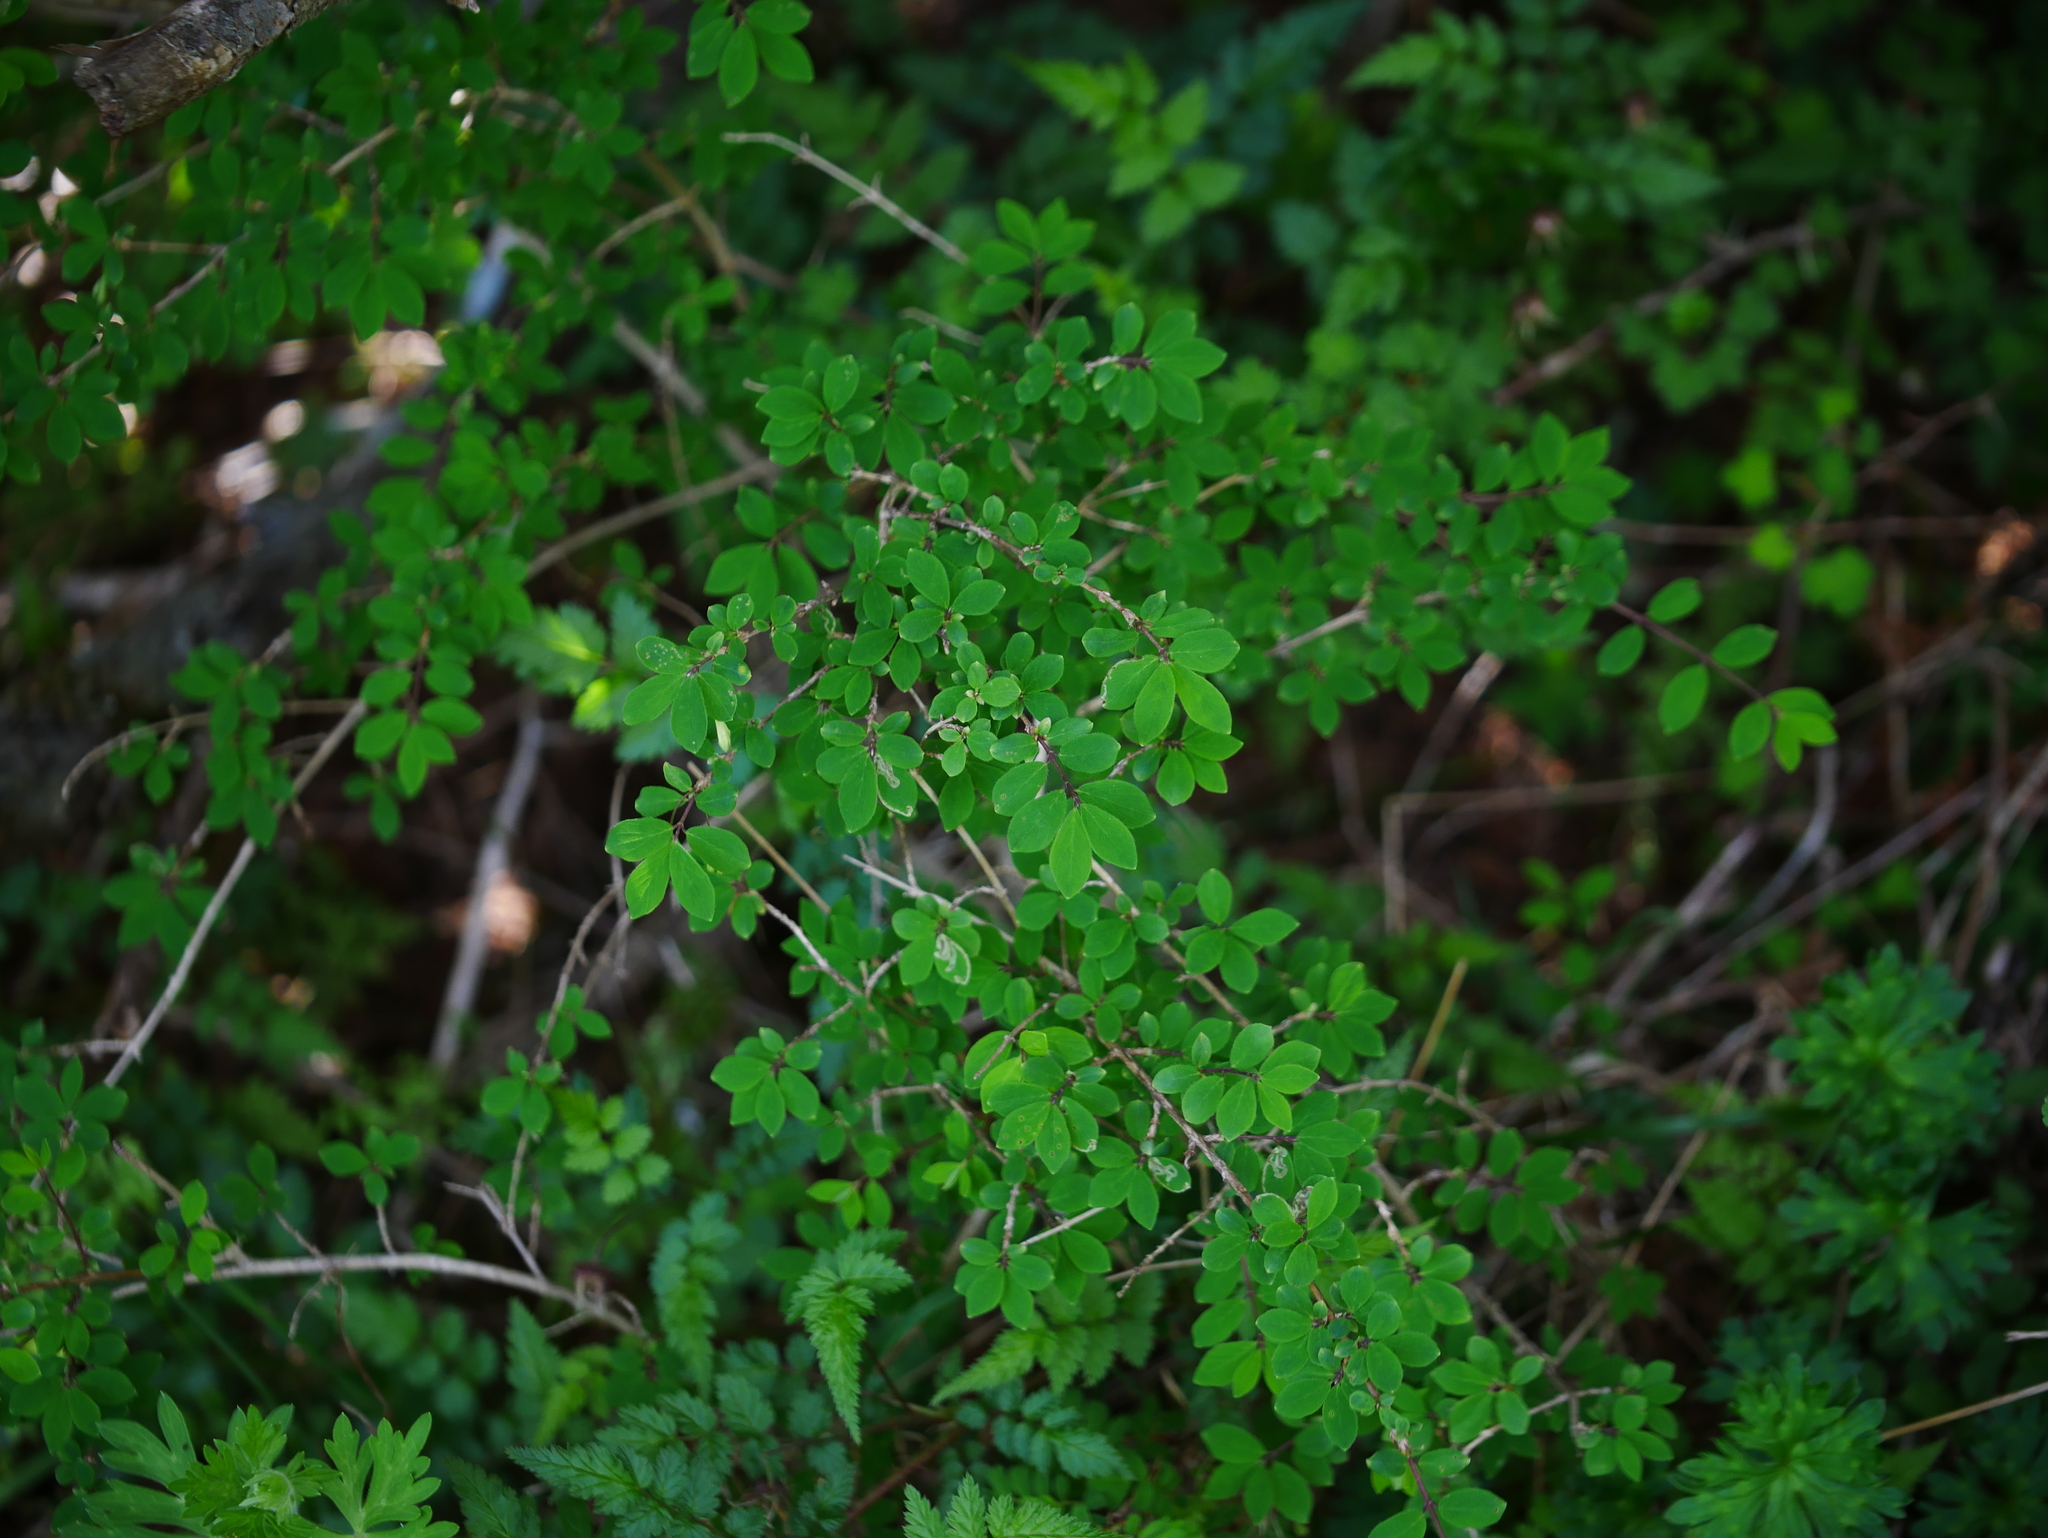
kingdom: Plantae
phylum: Tracheophyta
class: Magnoliopsida
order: Dipsacales
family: Caprifoliaceae
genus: Lonicera
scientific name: Lonicera kawakamii
